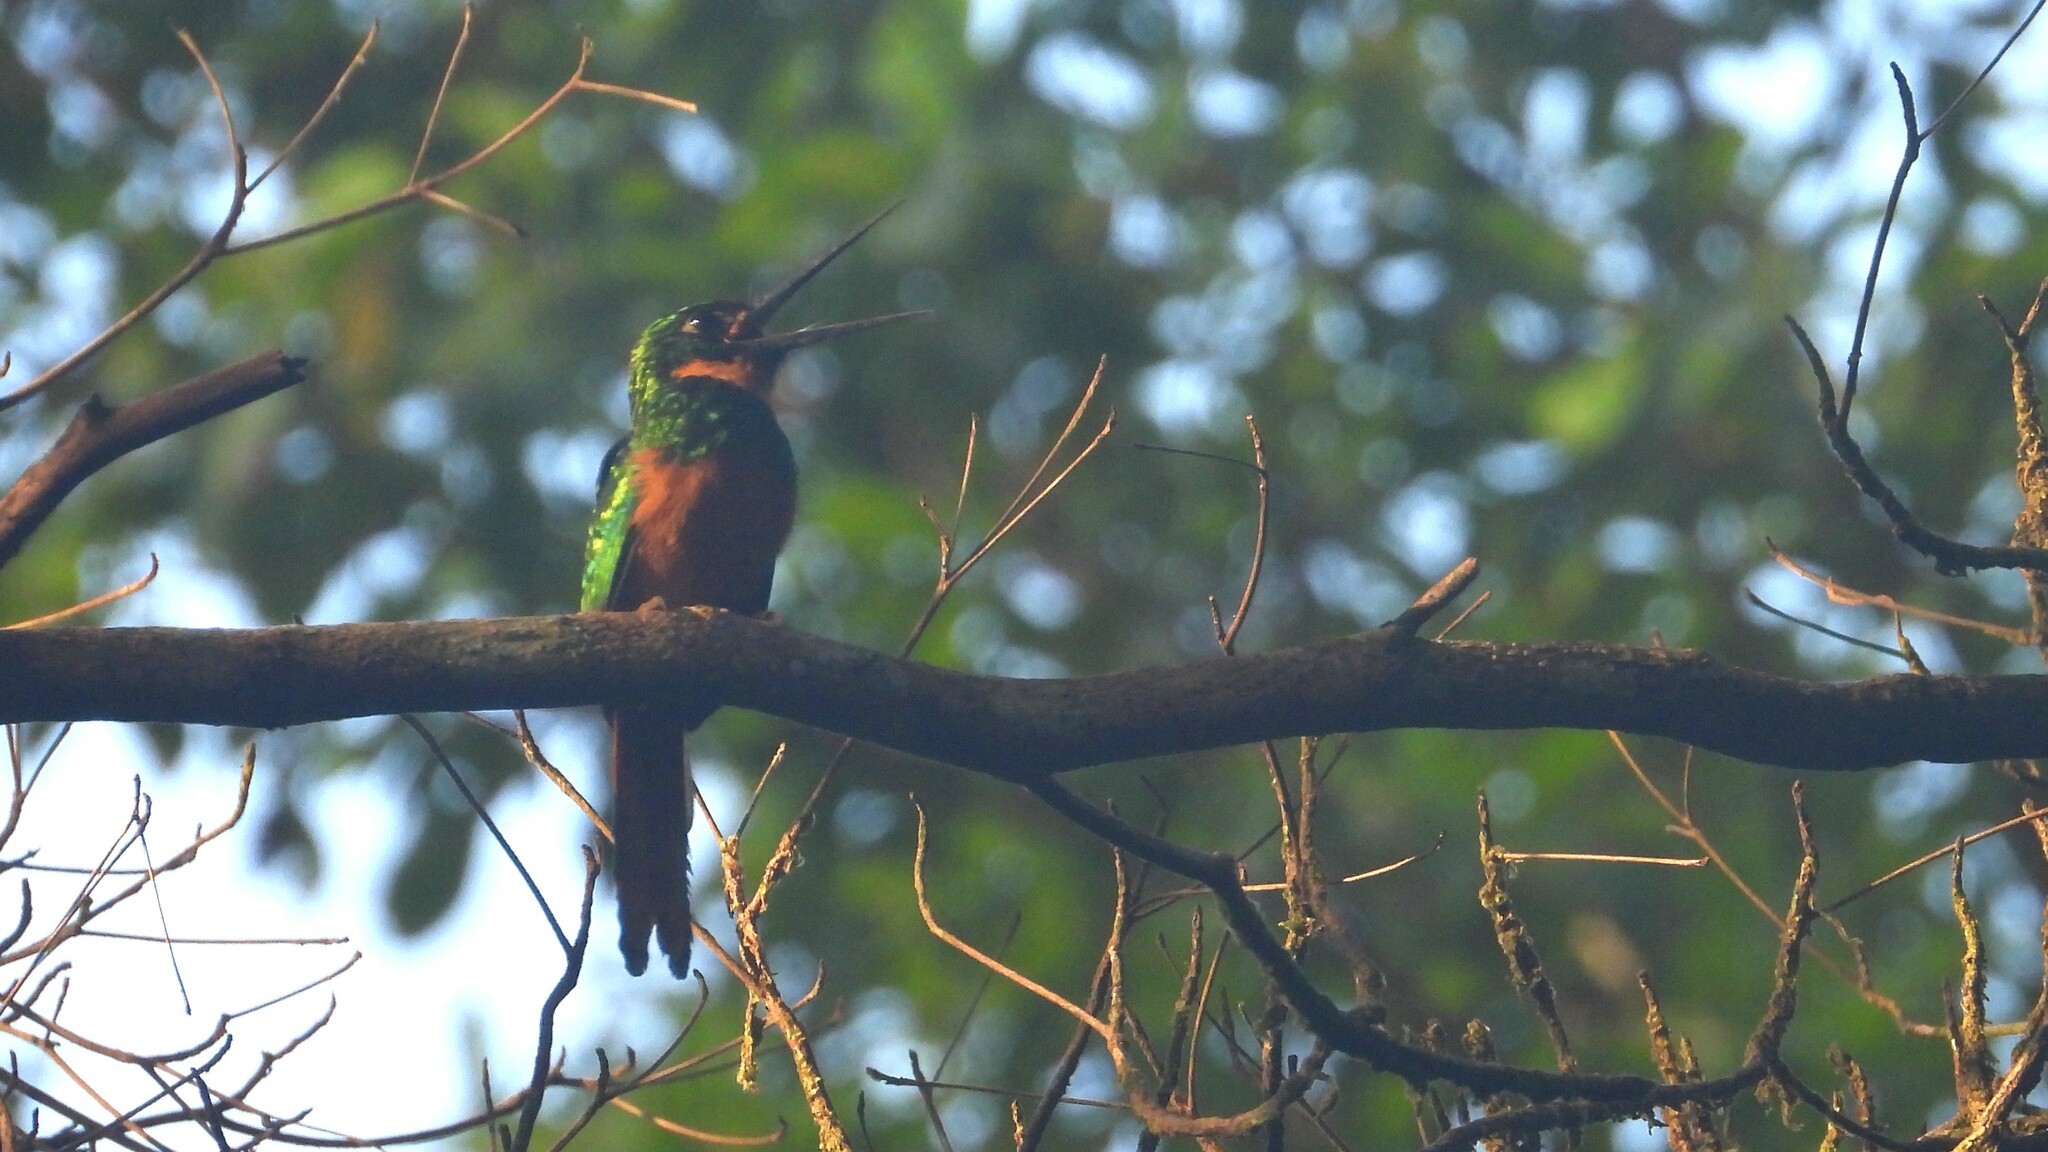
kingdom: Animalia
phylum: Chordata
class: Aves
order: Piciformes
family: Galbulidae
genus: Galbula
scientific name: Galbula ruficauda
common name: Rufous-tailed jacamar
